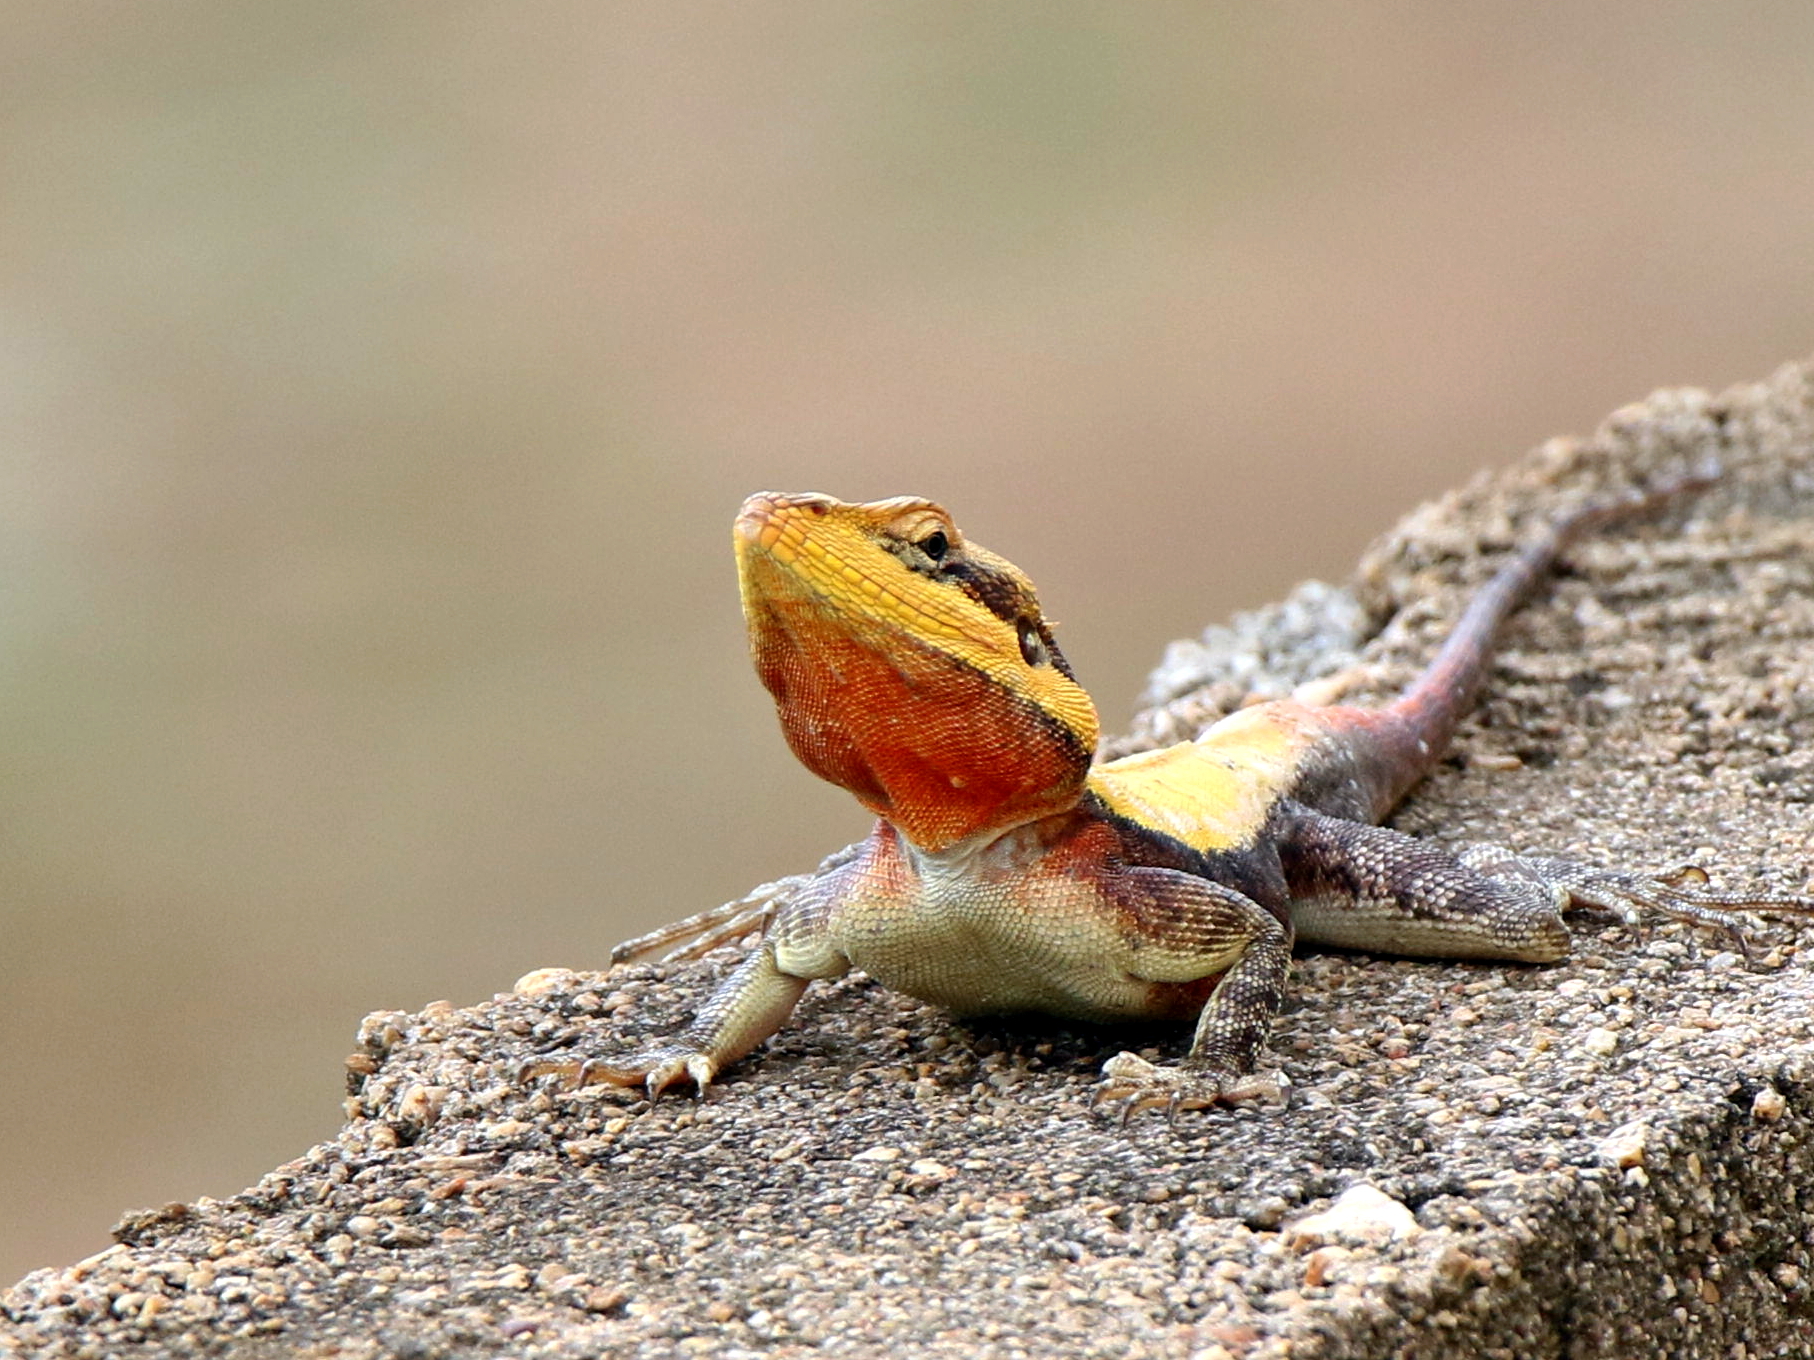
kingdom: Animalia
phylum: Chordata
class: Squamata
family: Agamidae
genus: Psammophilus
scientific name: Psammophilus dorsalis
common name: South indian rock agama
